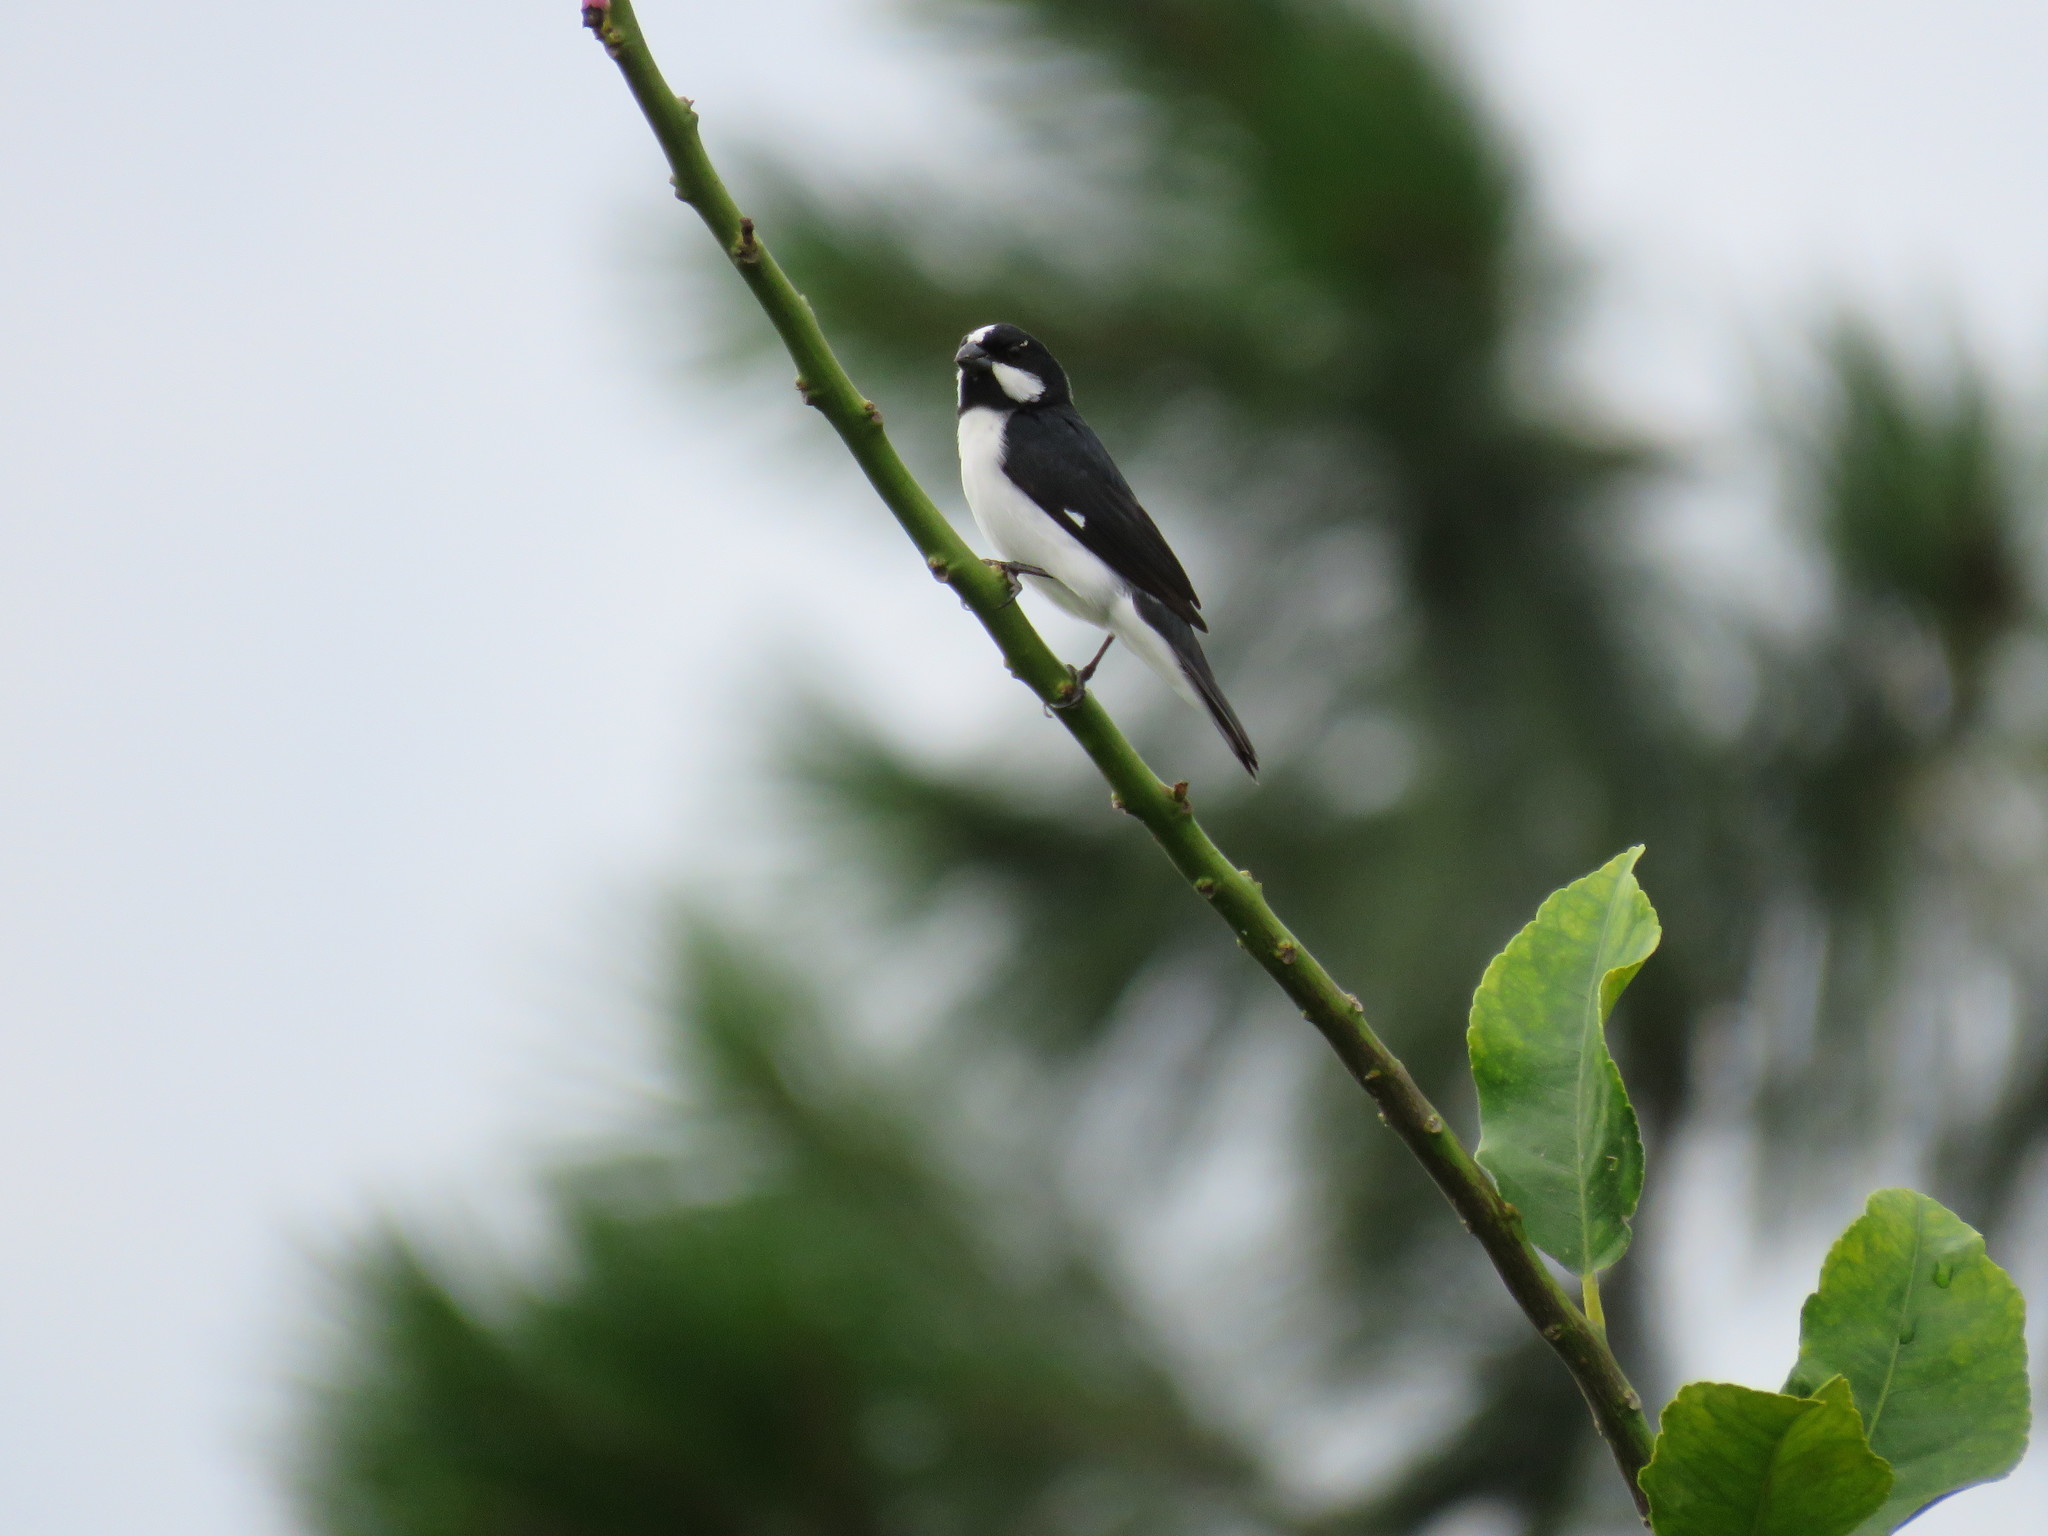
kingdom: Animalia
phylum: Chordata
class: Aves
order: Passeriformes
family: Thraupidae
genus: Sporophila
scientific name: Sporophila lineola
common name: Lined seedeater
